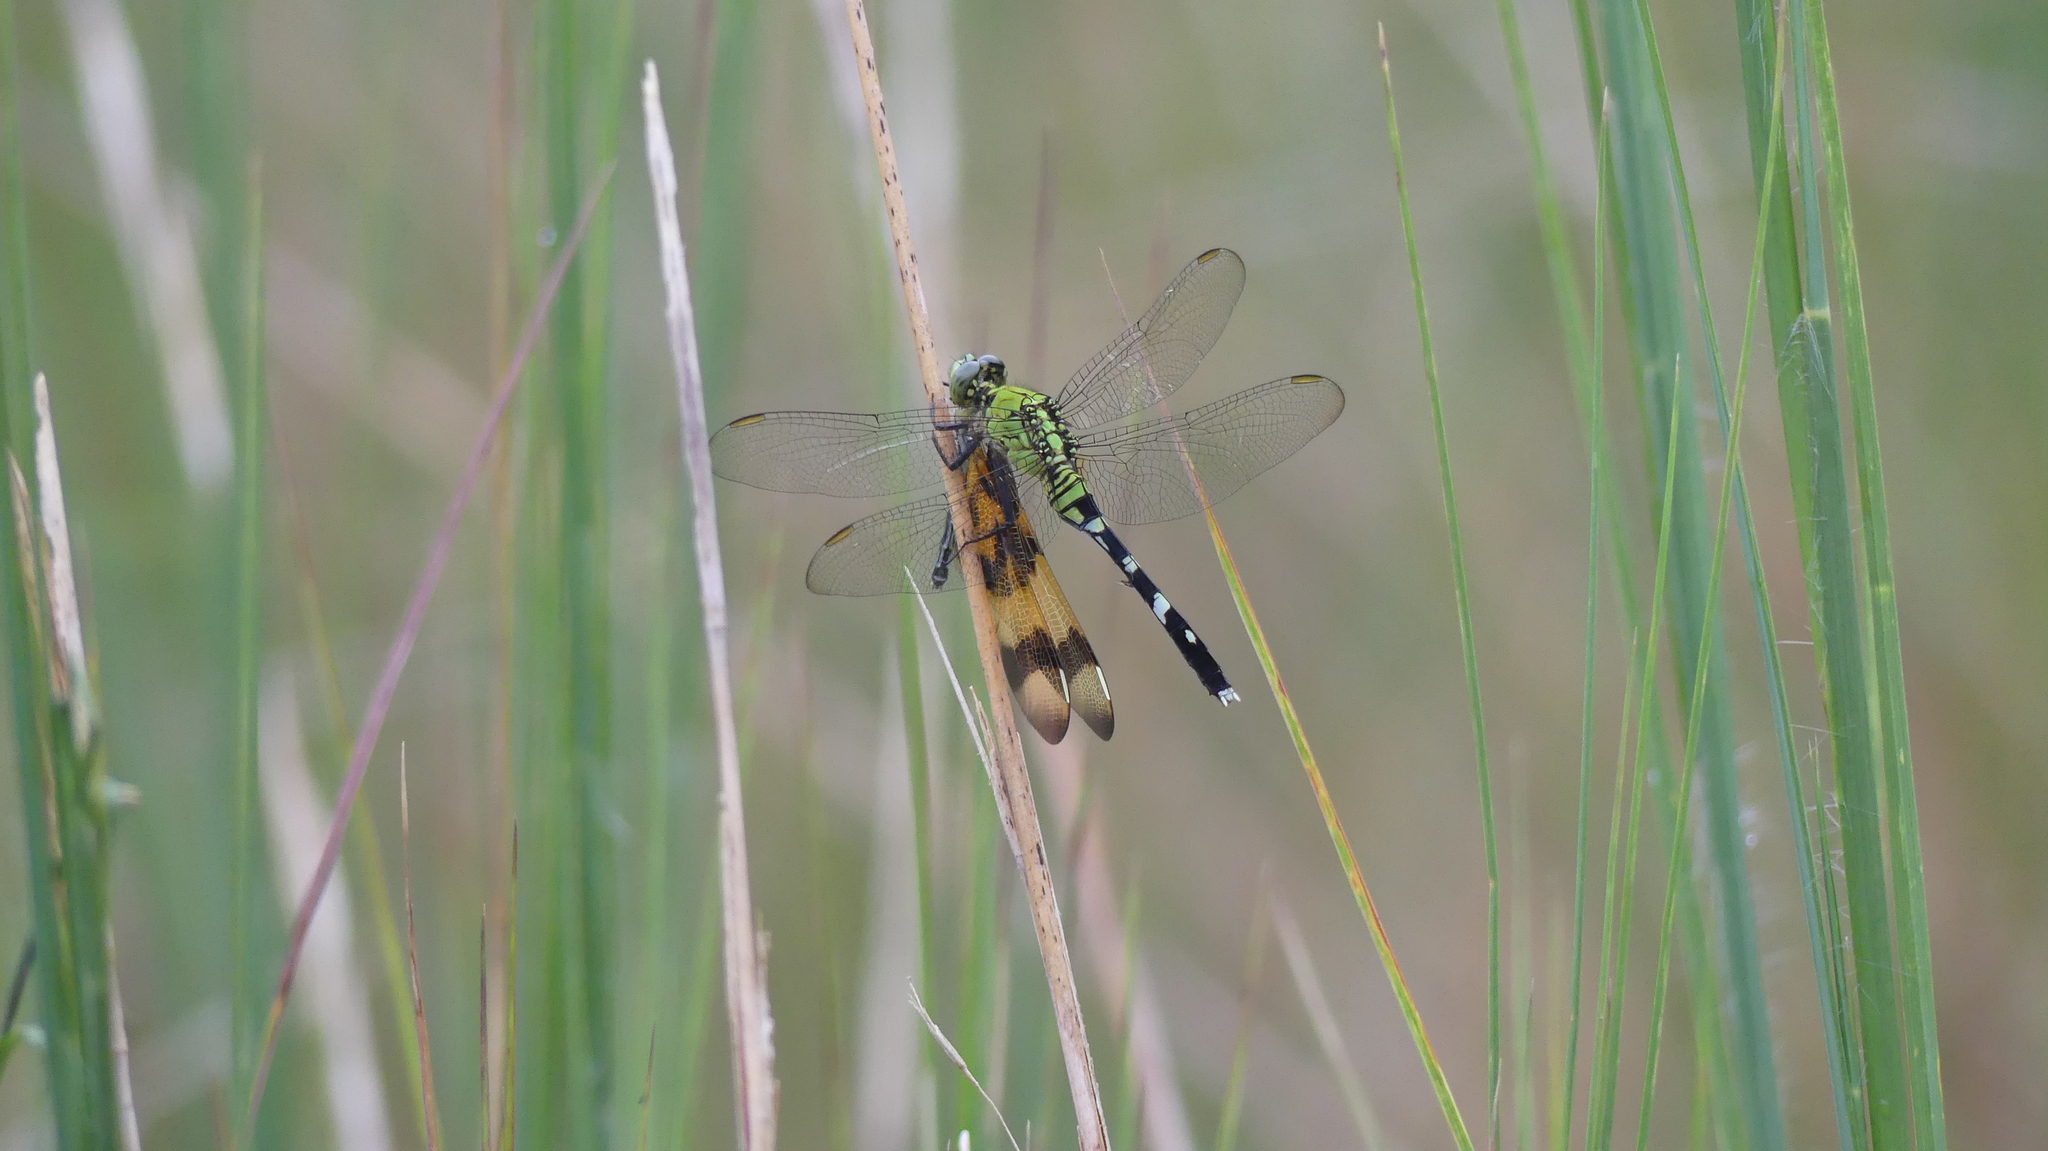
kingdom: Animalia
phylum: Arthropoda
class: Insecta
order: Odonata
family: Libellulidae
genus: Erythemis
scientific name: Erythemis simplicicollis
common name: Eastern pondhawk
